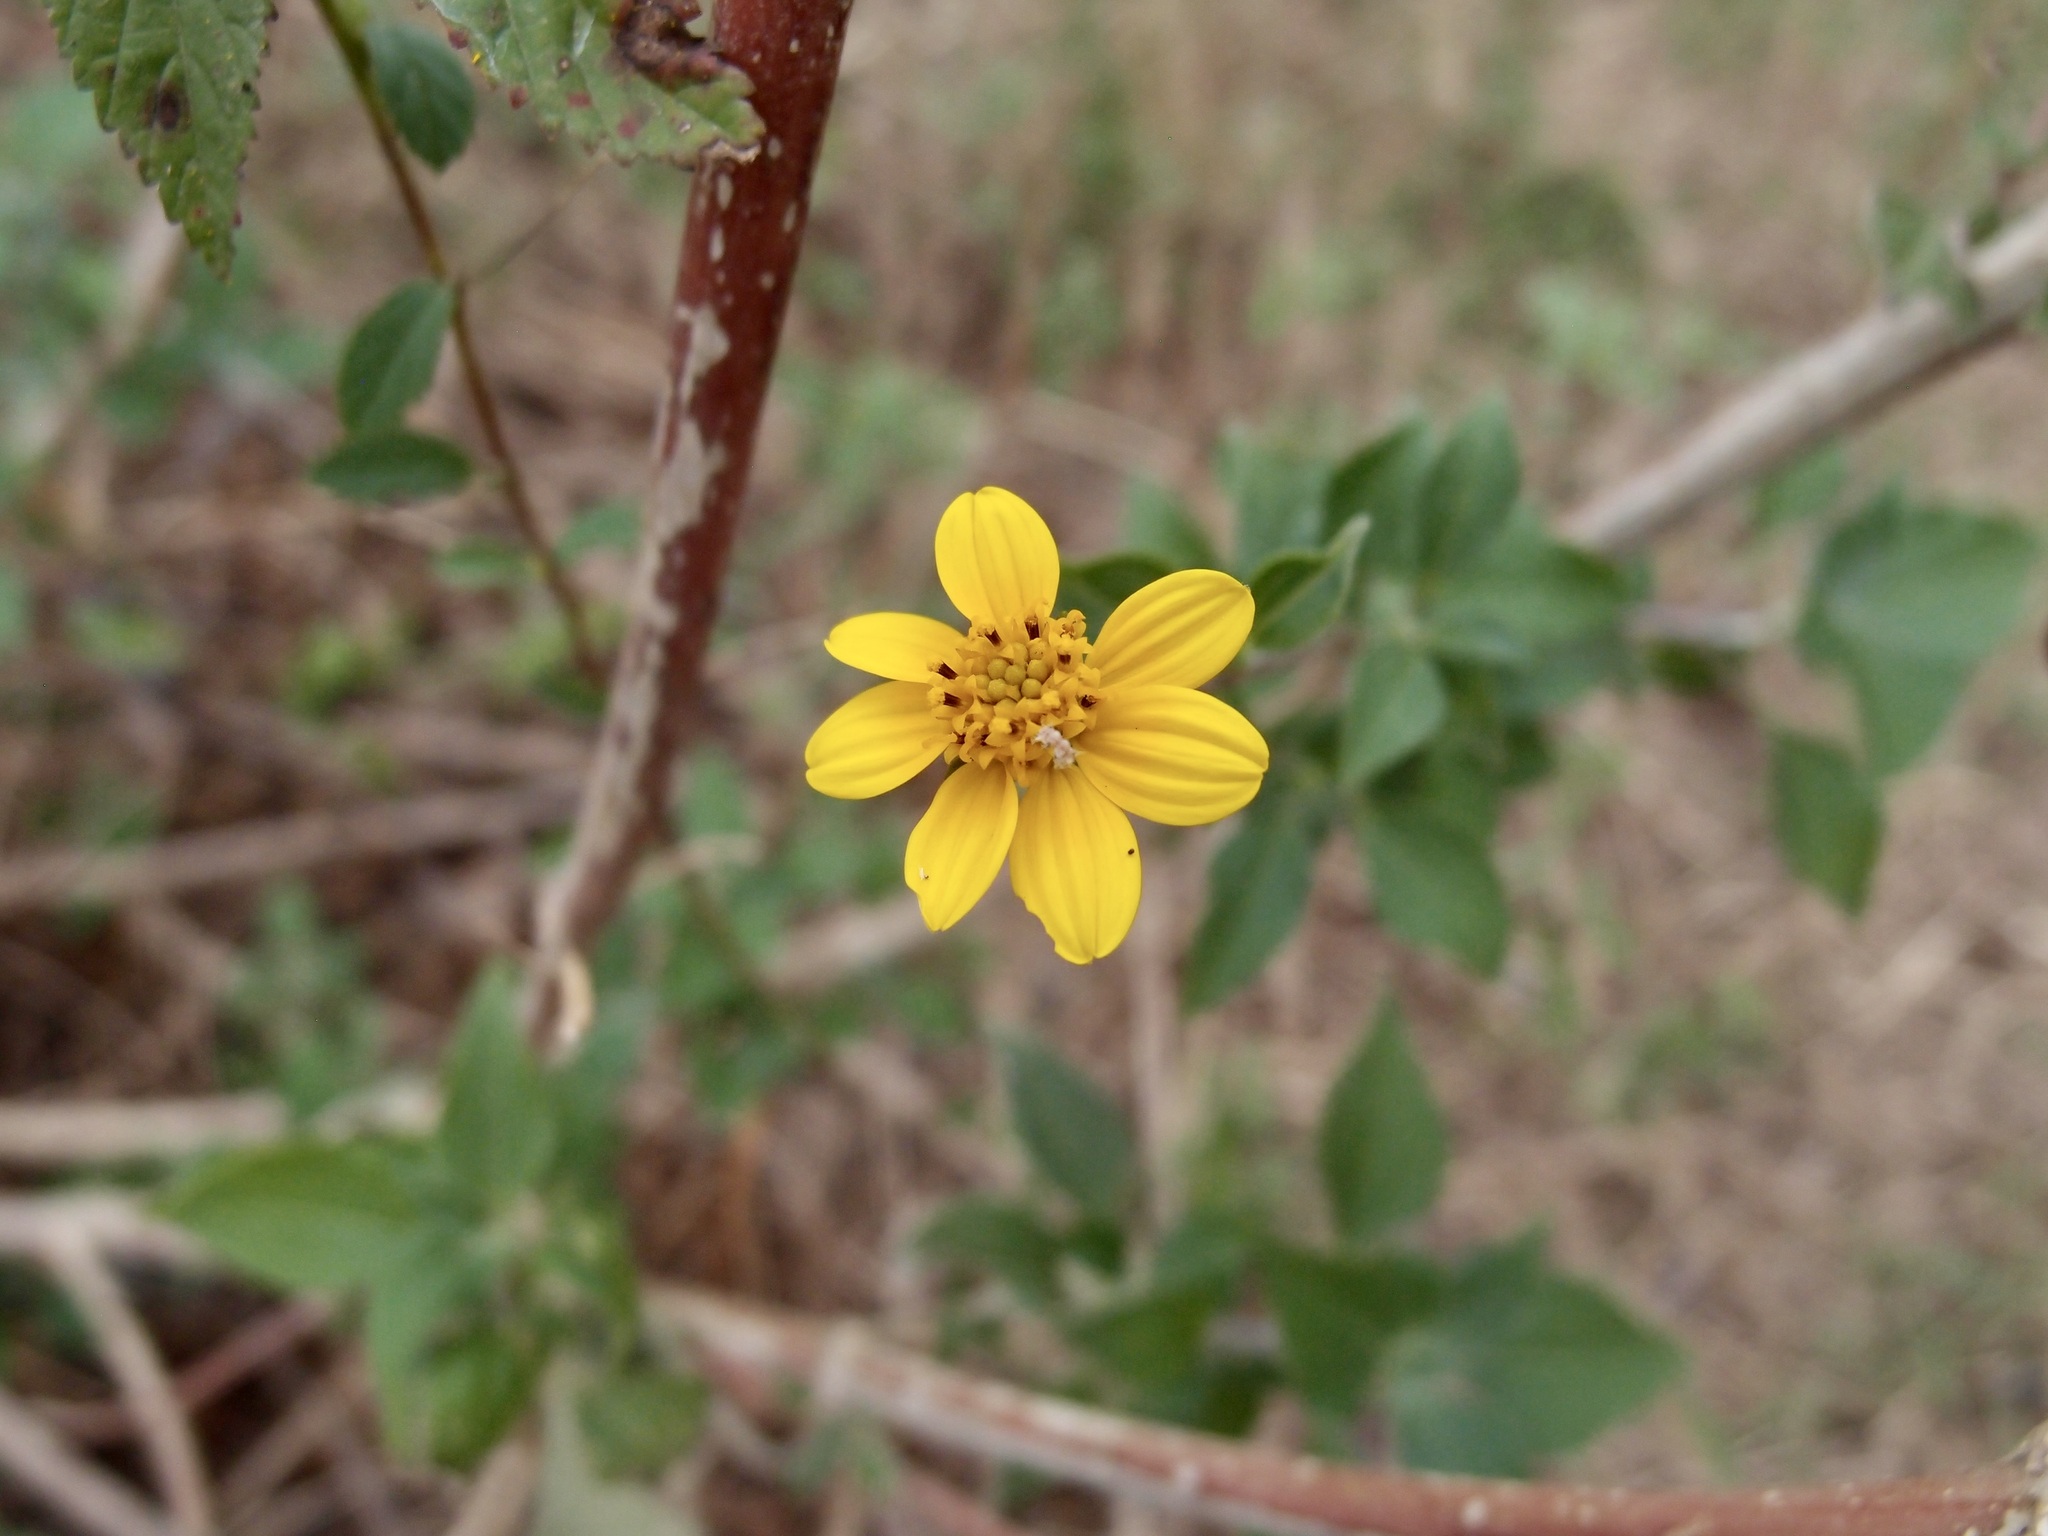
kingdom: Plantae
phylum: Tracheophyta
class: Magnoliopsida
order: Asterales
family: Asteraceae
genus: Viguiera
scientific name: Viguiera dentata
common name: Toothleaf
